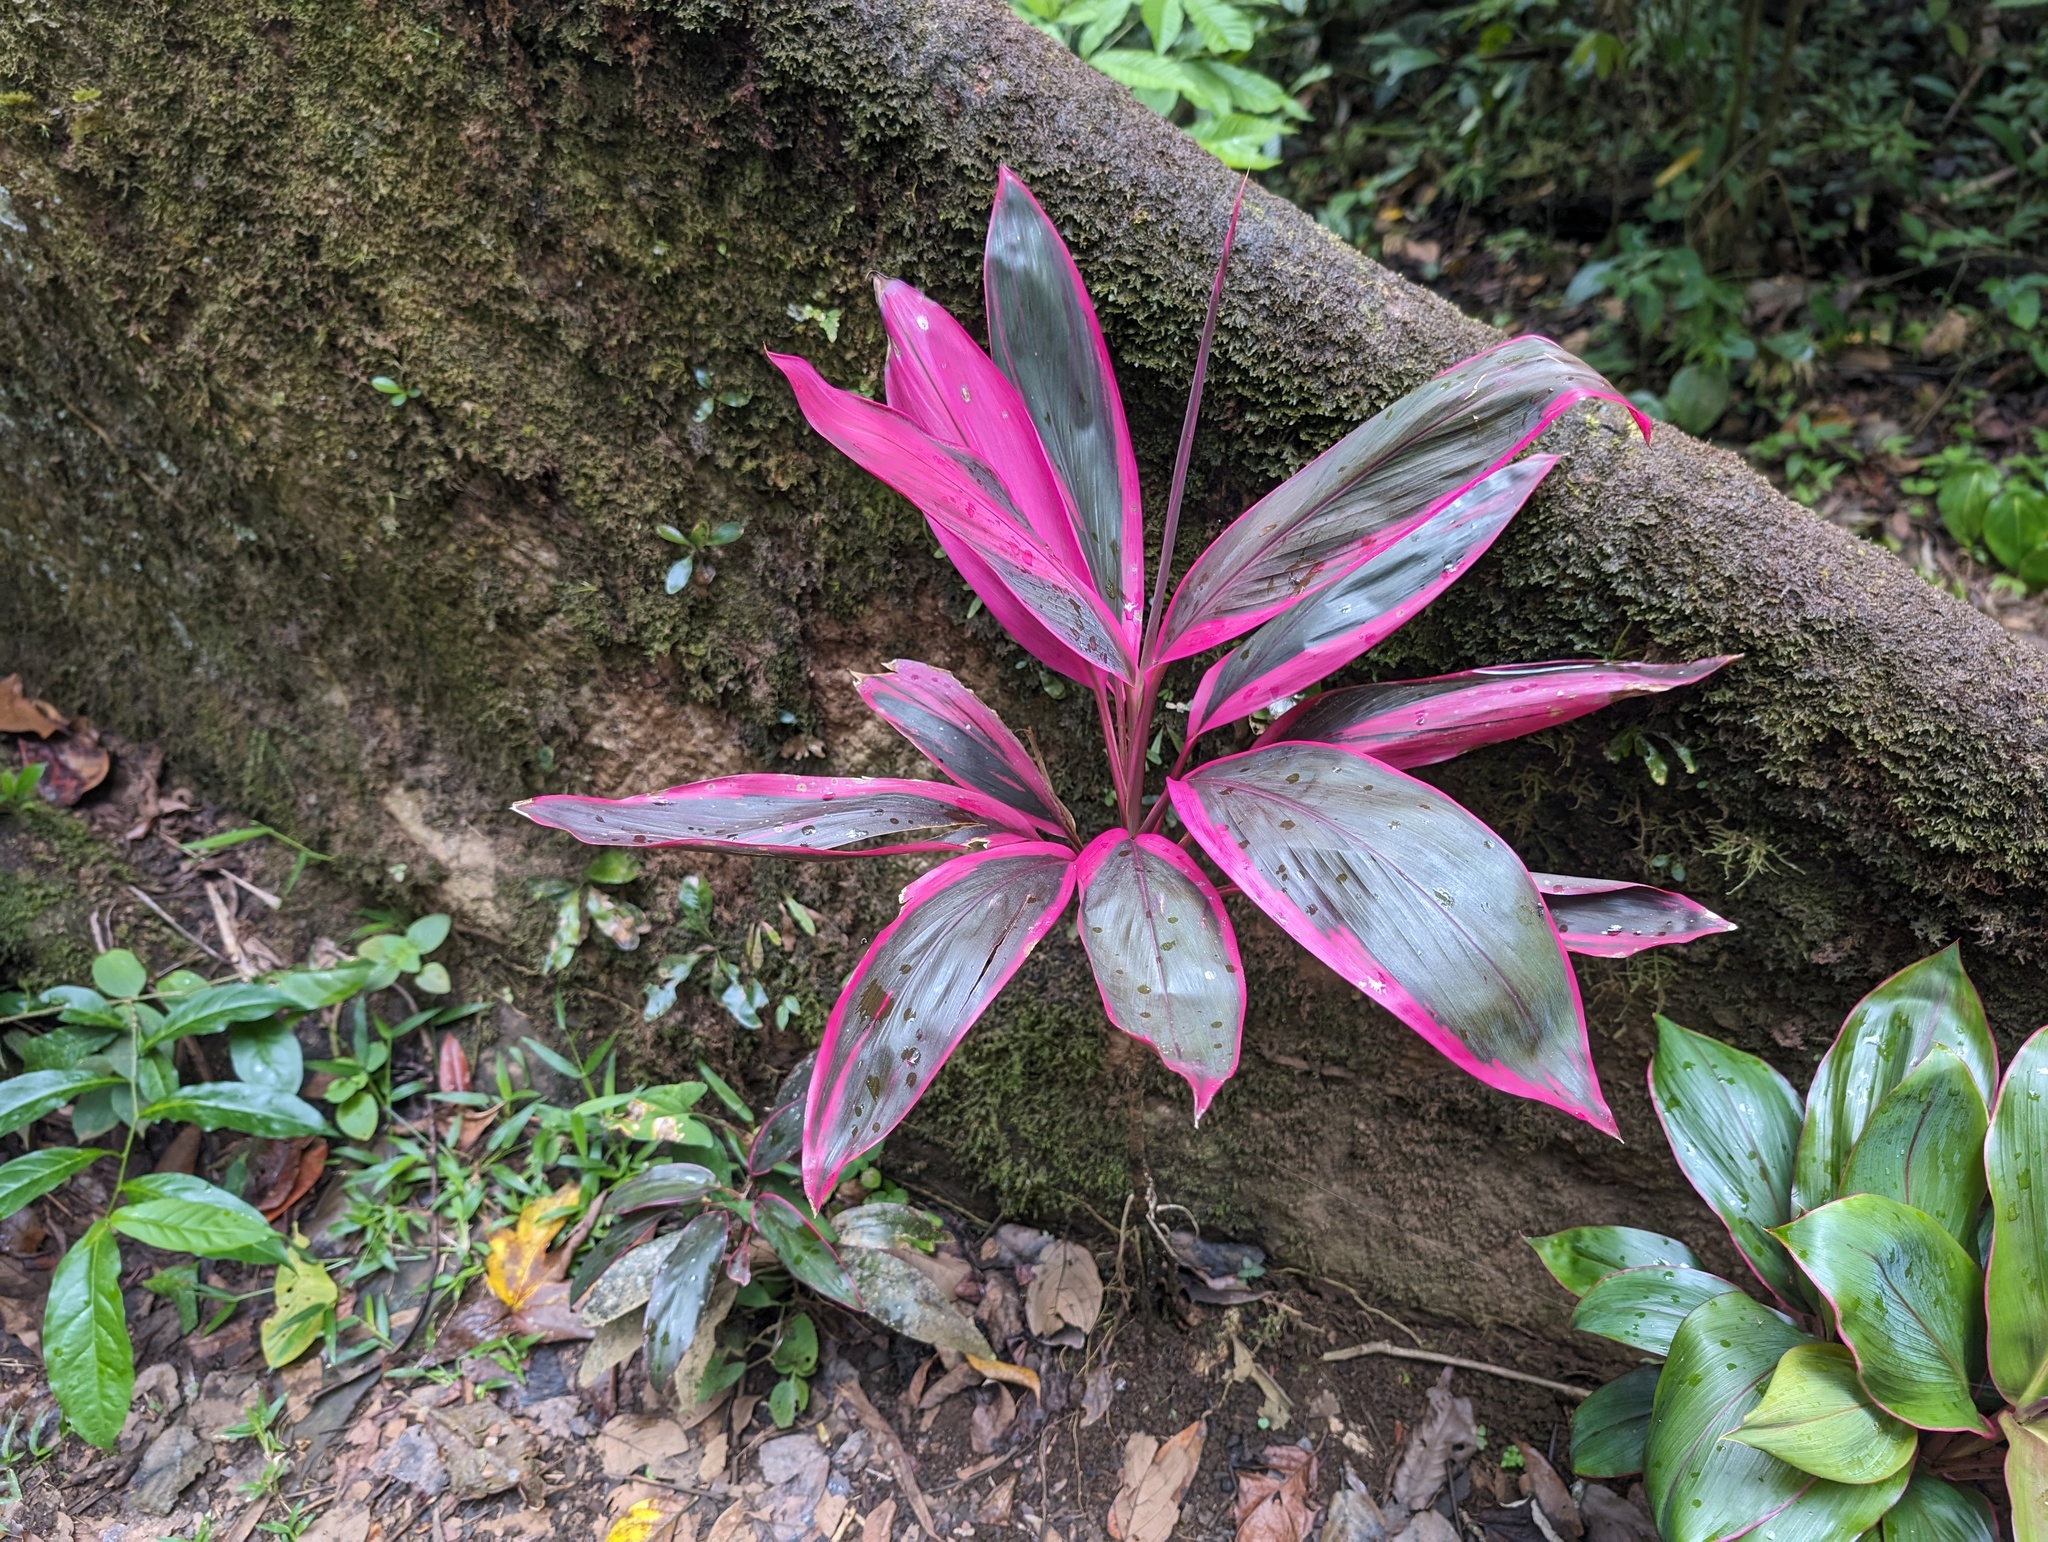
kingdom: Plantae
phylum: Tracheophyta
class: Liliopsida
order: Asparagales
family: Asparagaceae
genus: Cordyline
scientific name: Cordyline fruticosa
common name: Good-luck-plant
